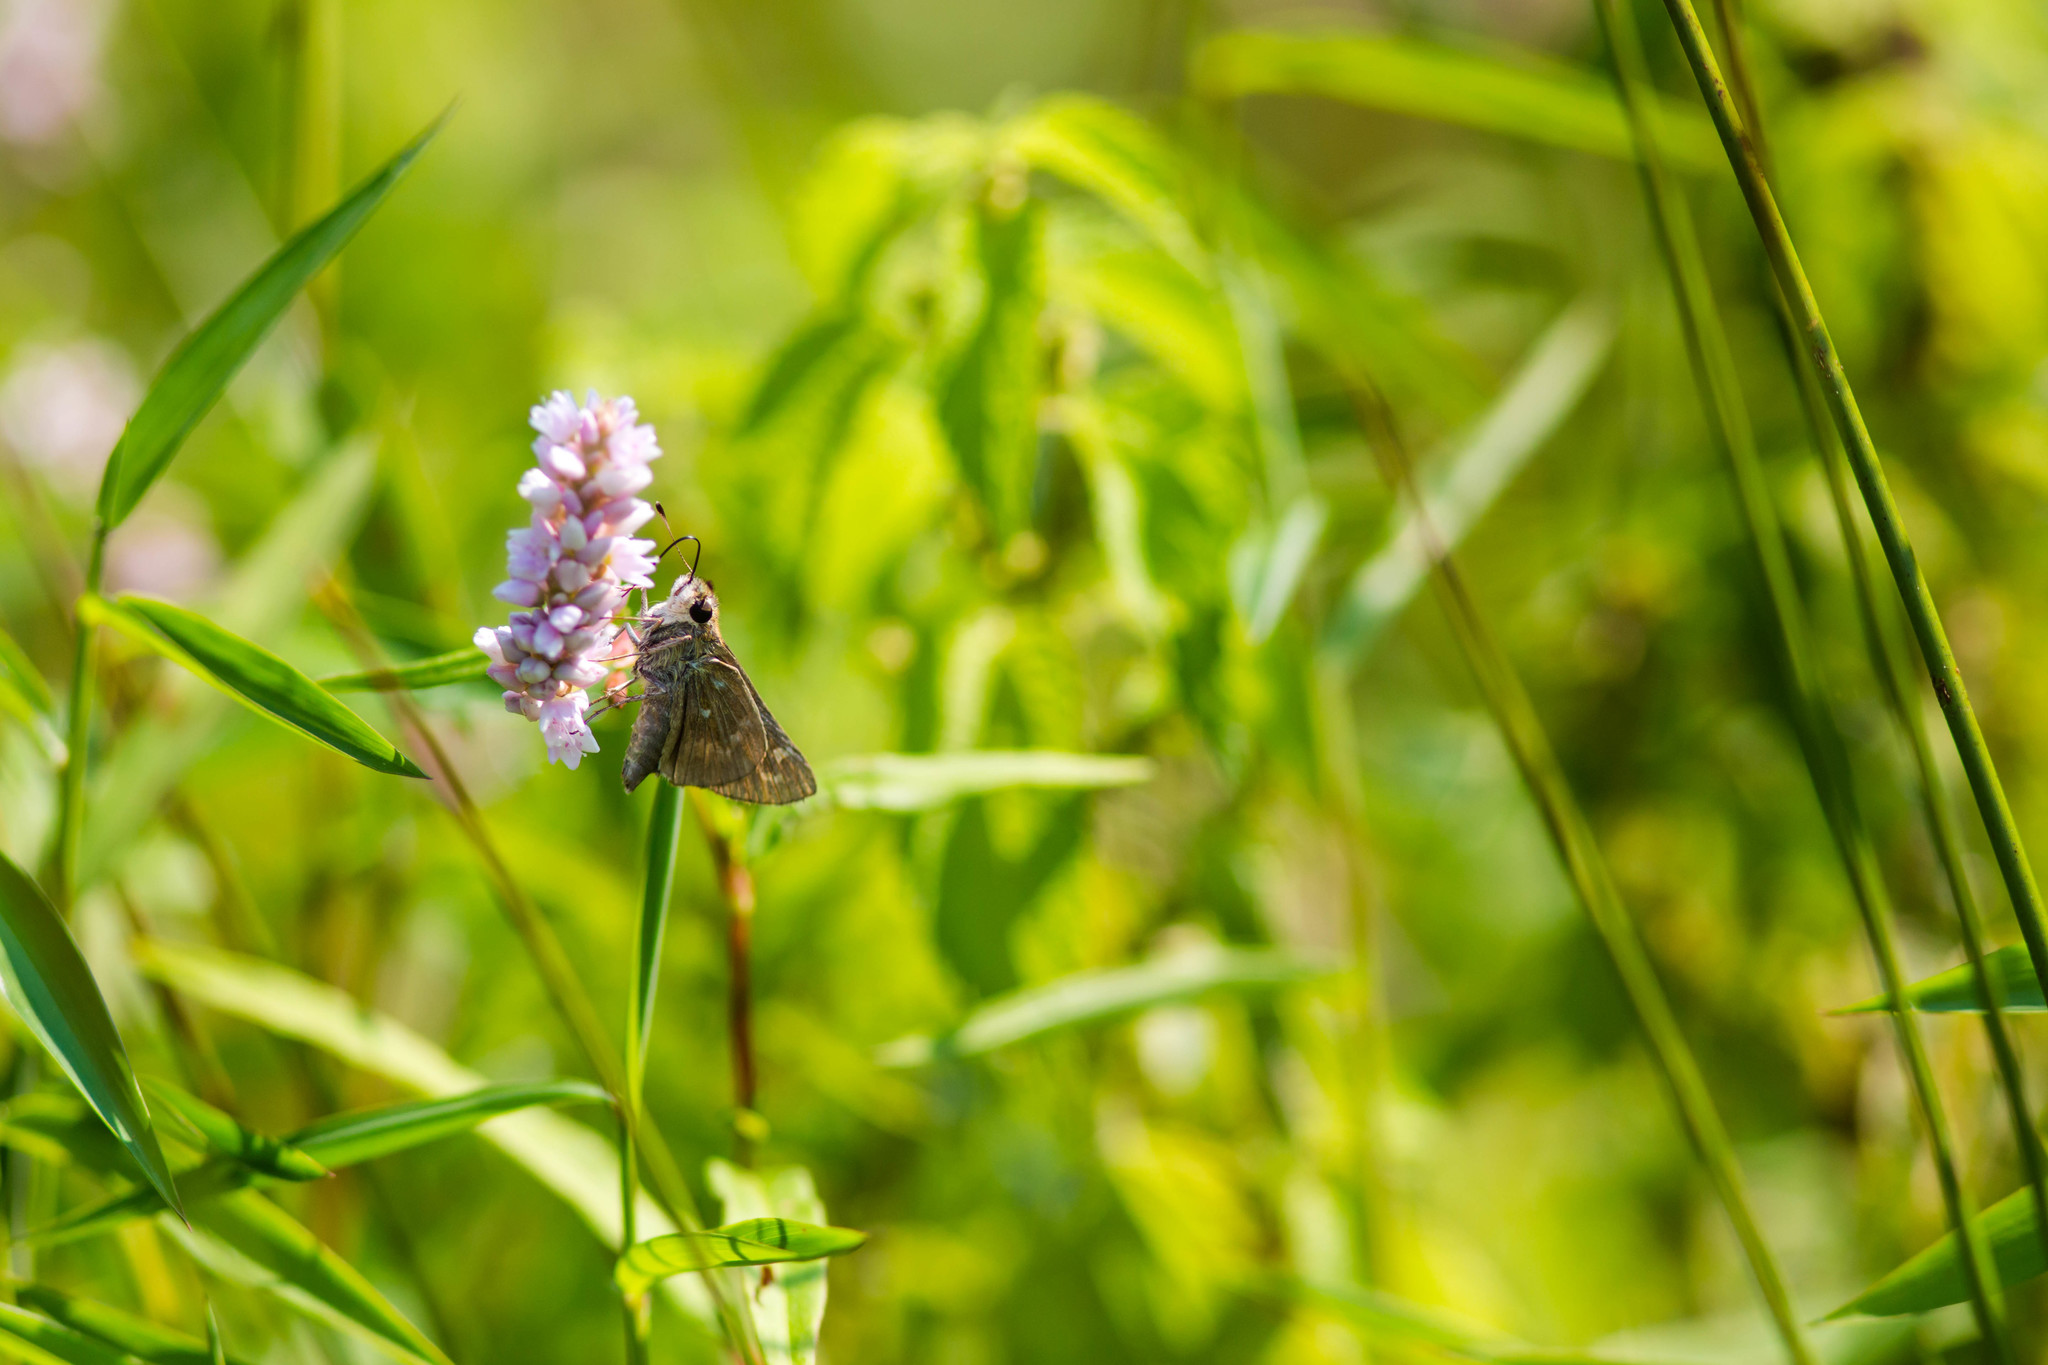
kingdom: Animalia
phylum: Arthropoda
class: Insecta
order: Lepidoptera
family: Hesperiidae
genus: Atalopedes
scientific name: Atalopedes
